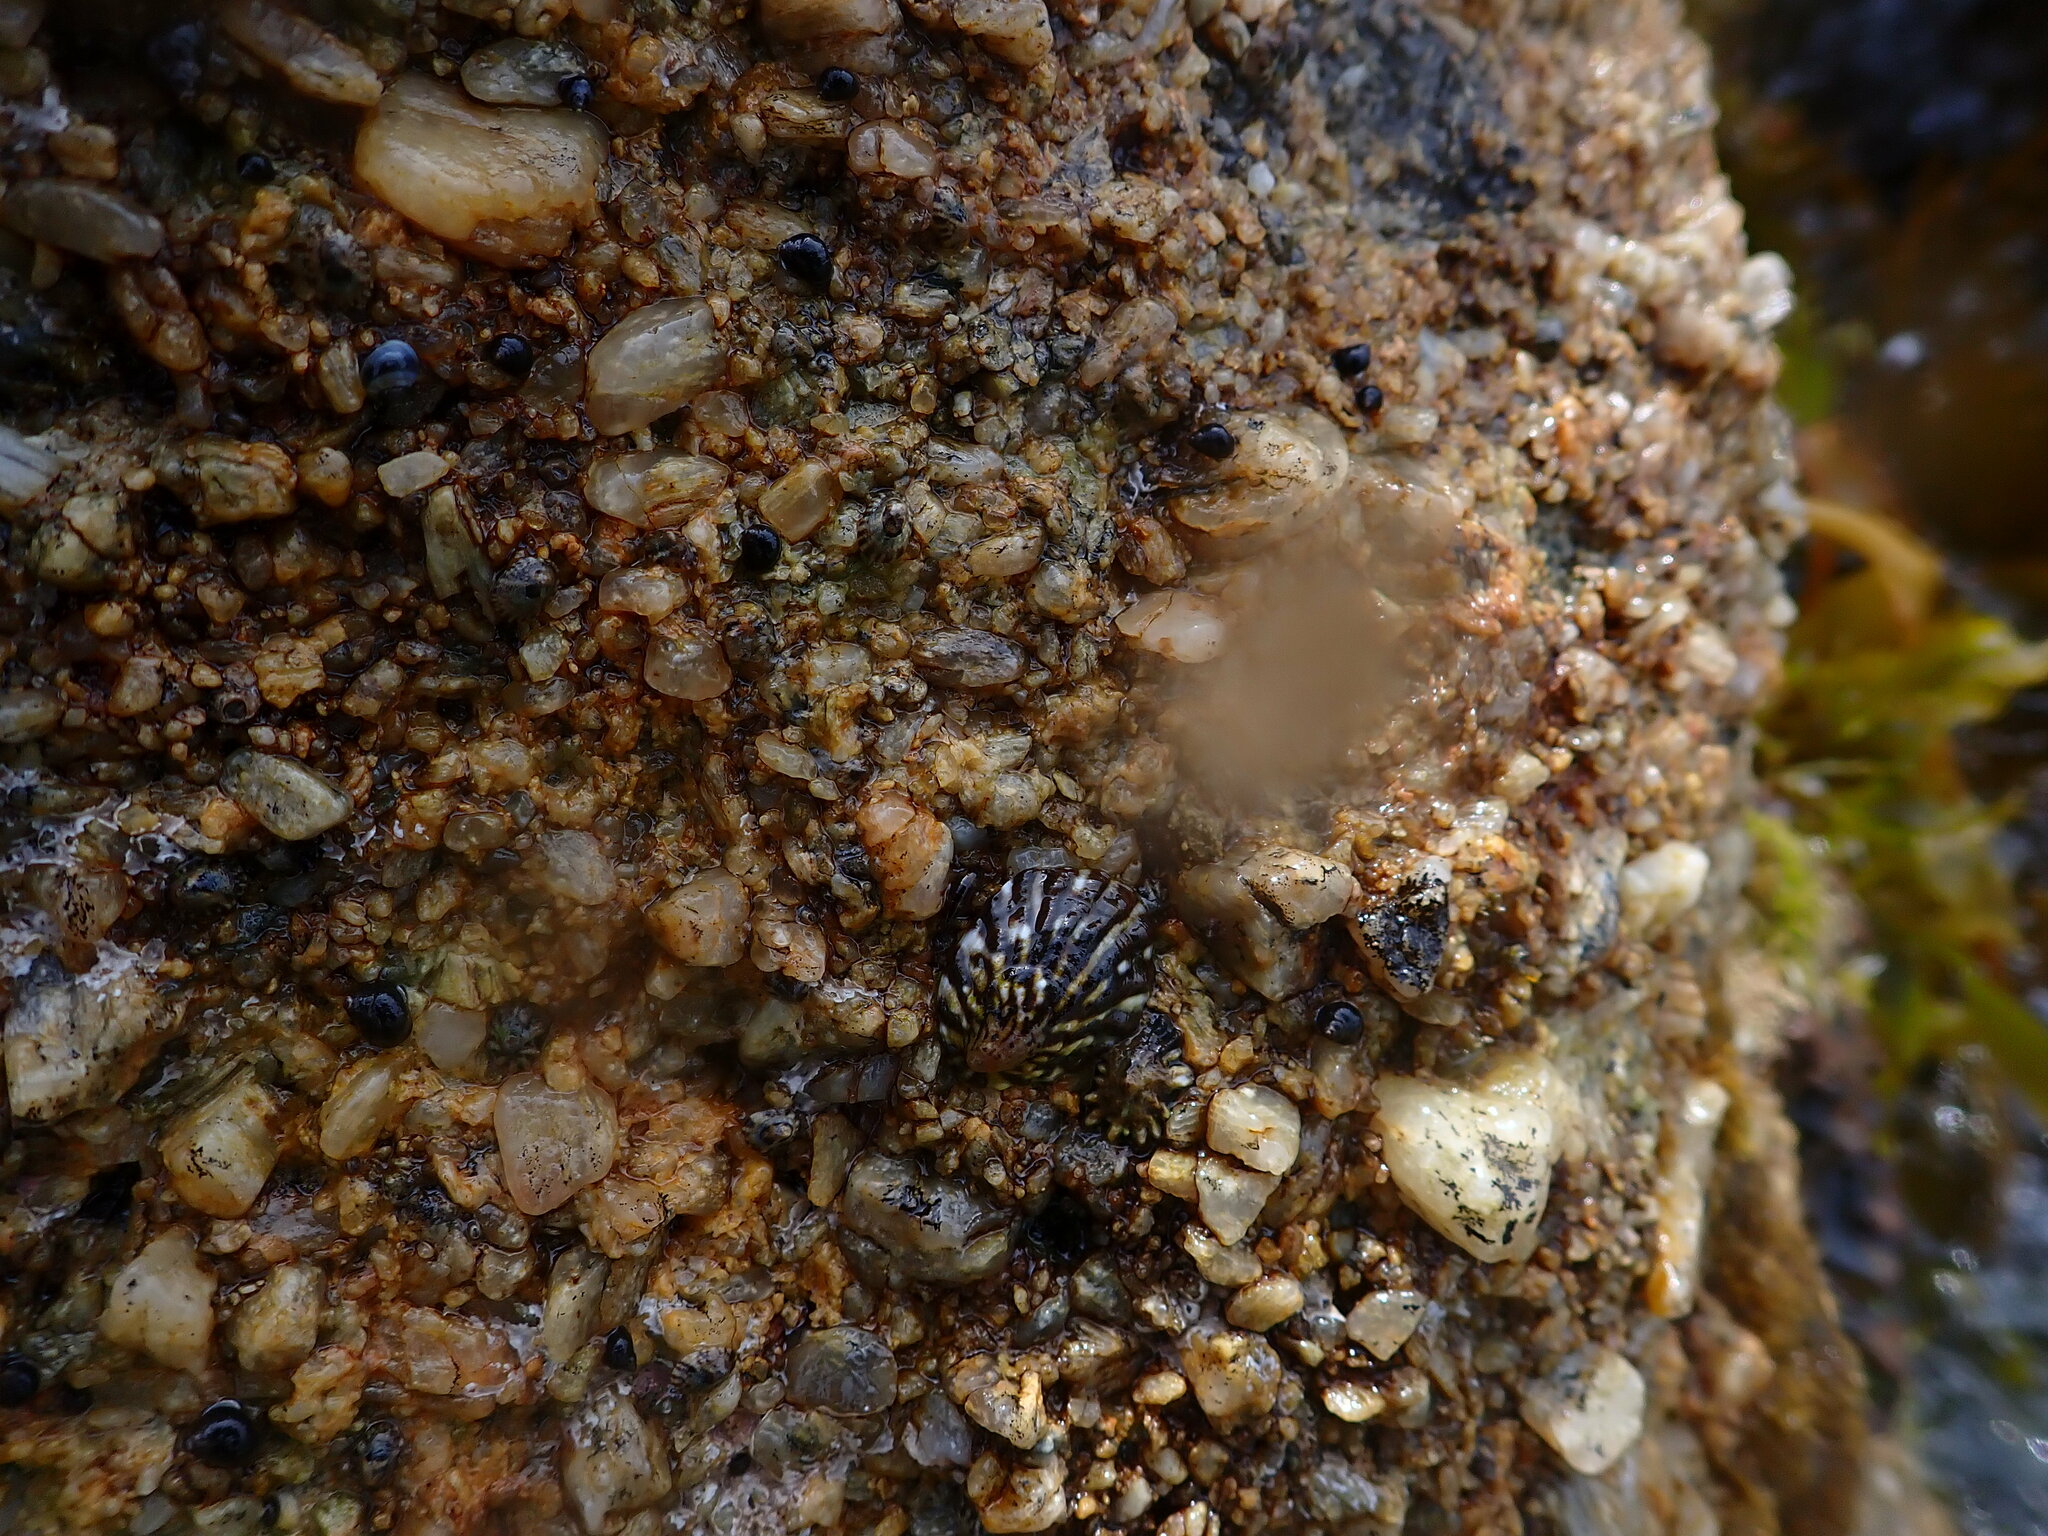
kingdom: Animalia
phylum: Mollusca
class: Gastropoda
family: Nacellidae
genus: Cellana
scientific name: Cellana strigilis
